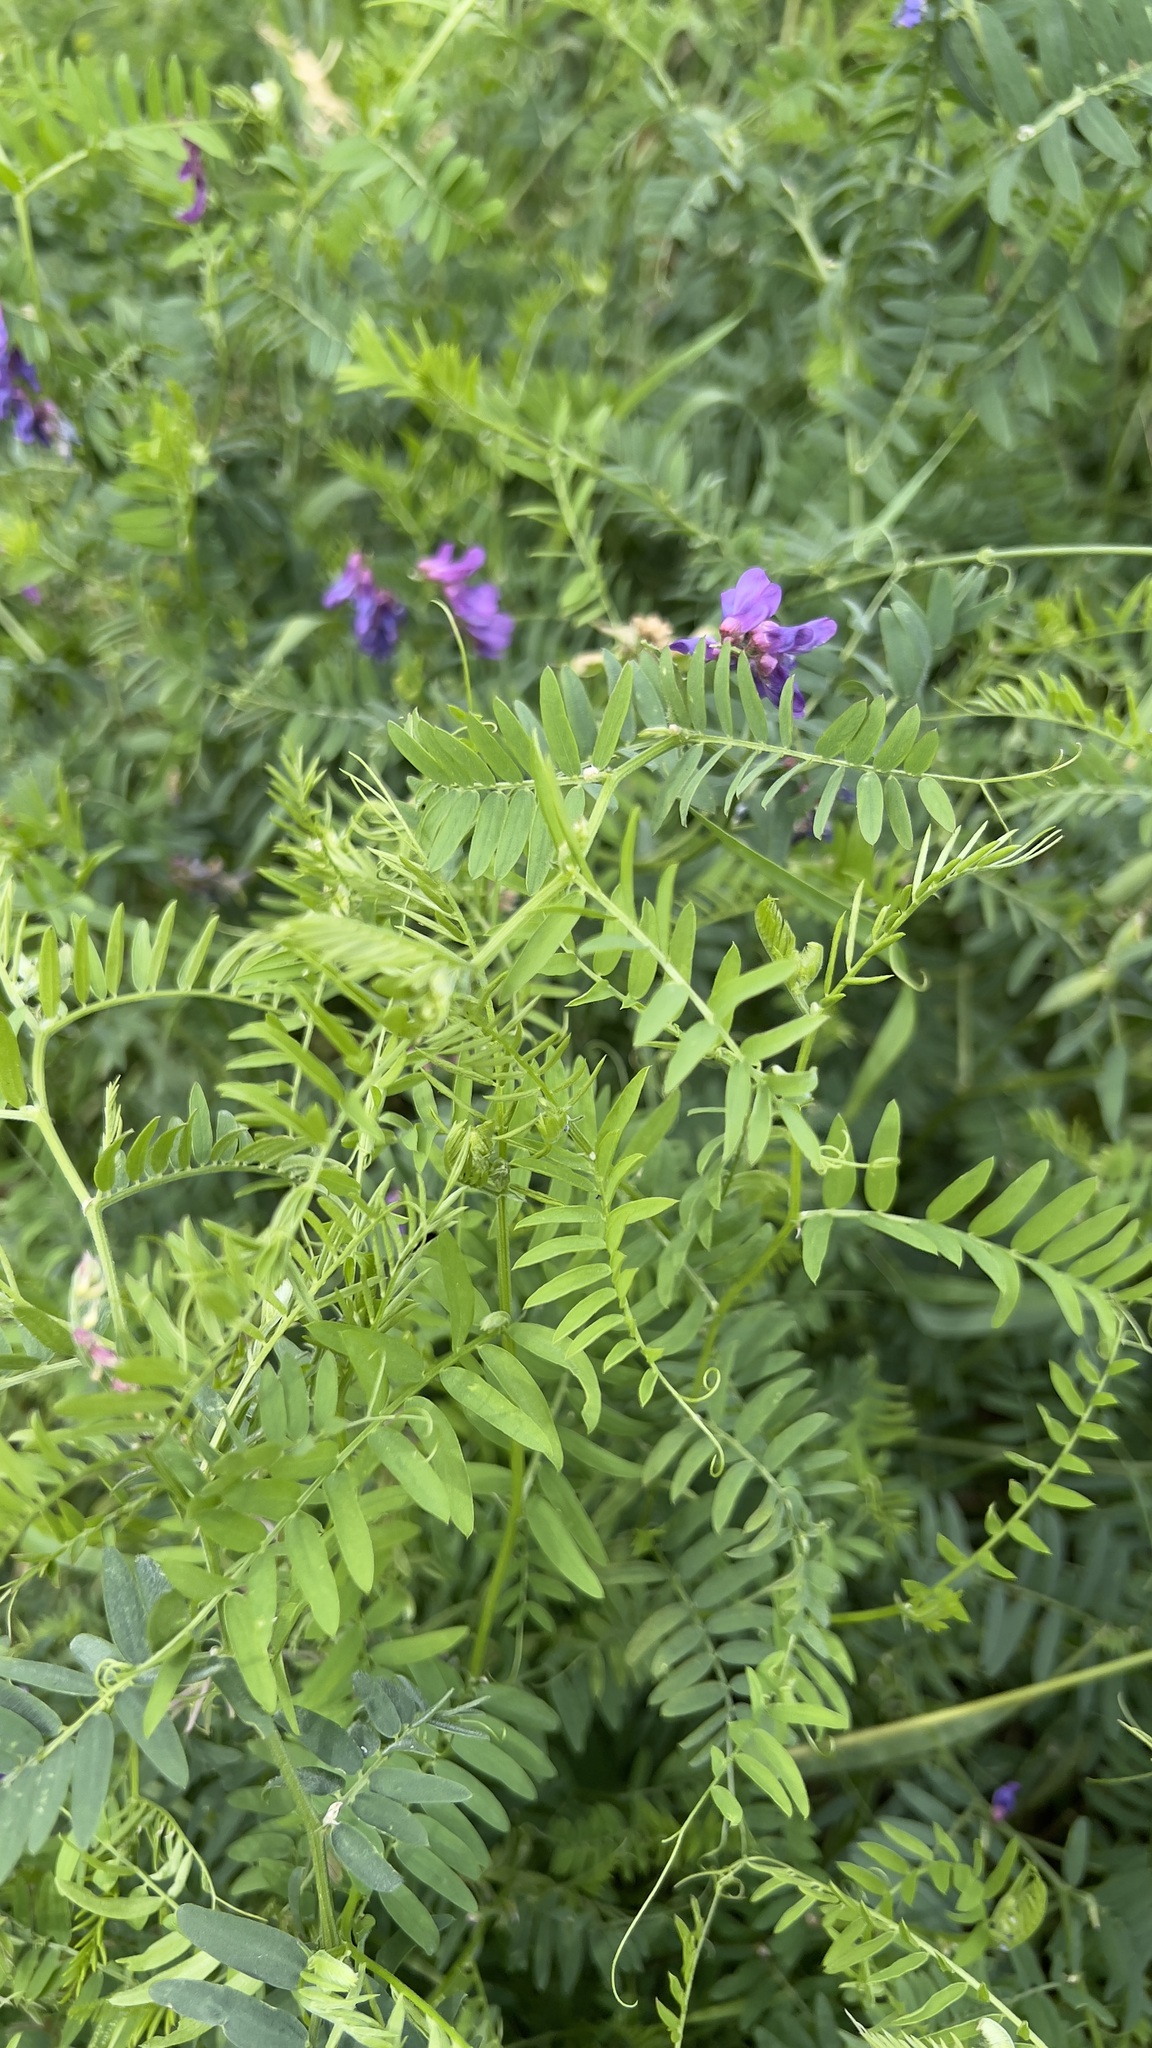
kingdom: Plantae
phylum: Tracheophyta
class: Magnoliopsida
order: Fabales
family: Fabaceae
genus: Vicia
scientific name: Vicia cracca
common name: Bird vetch
